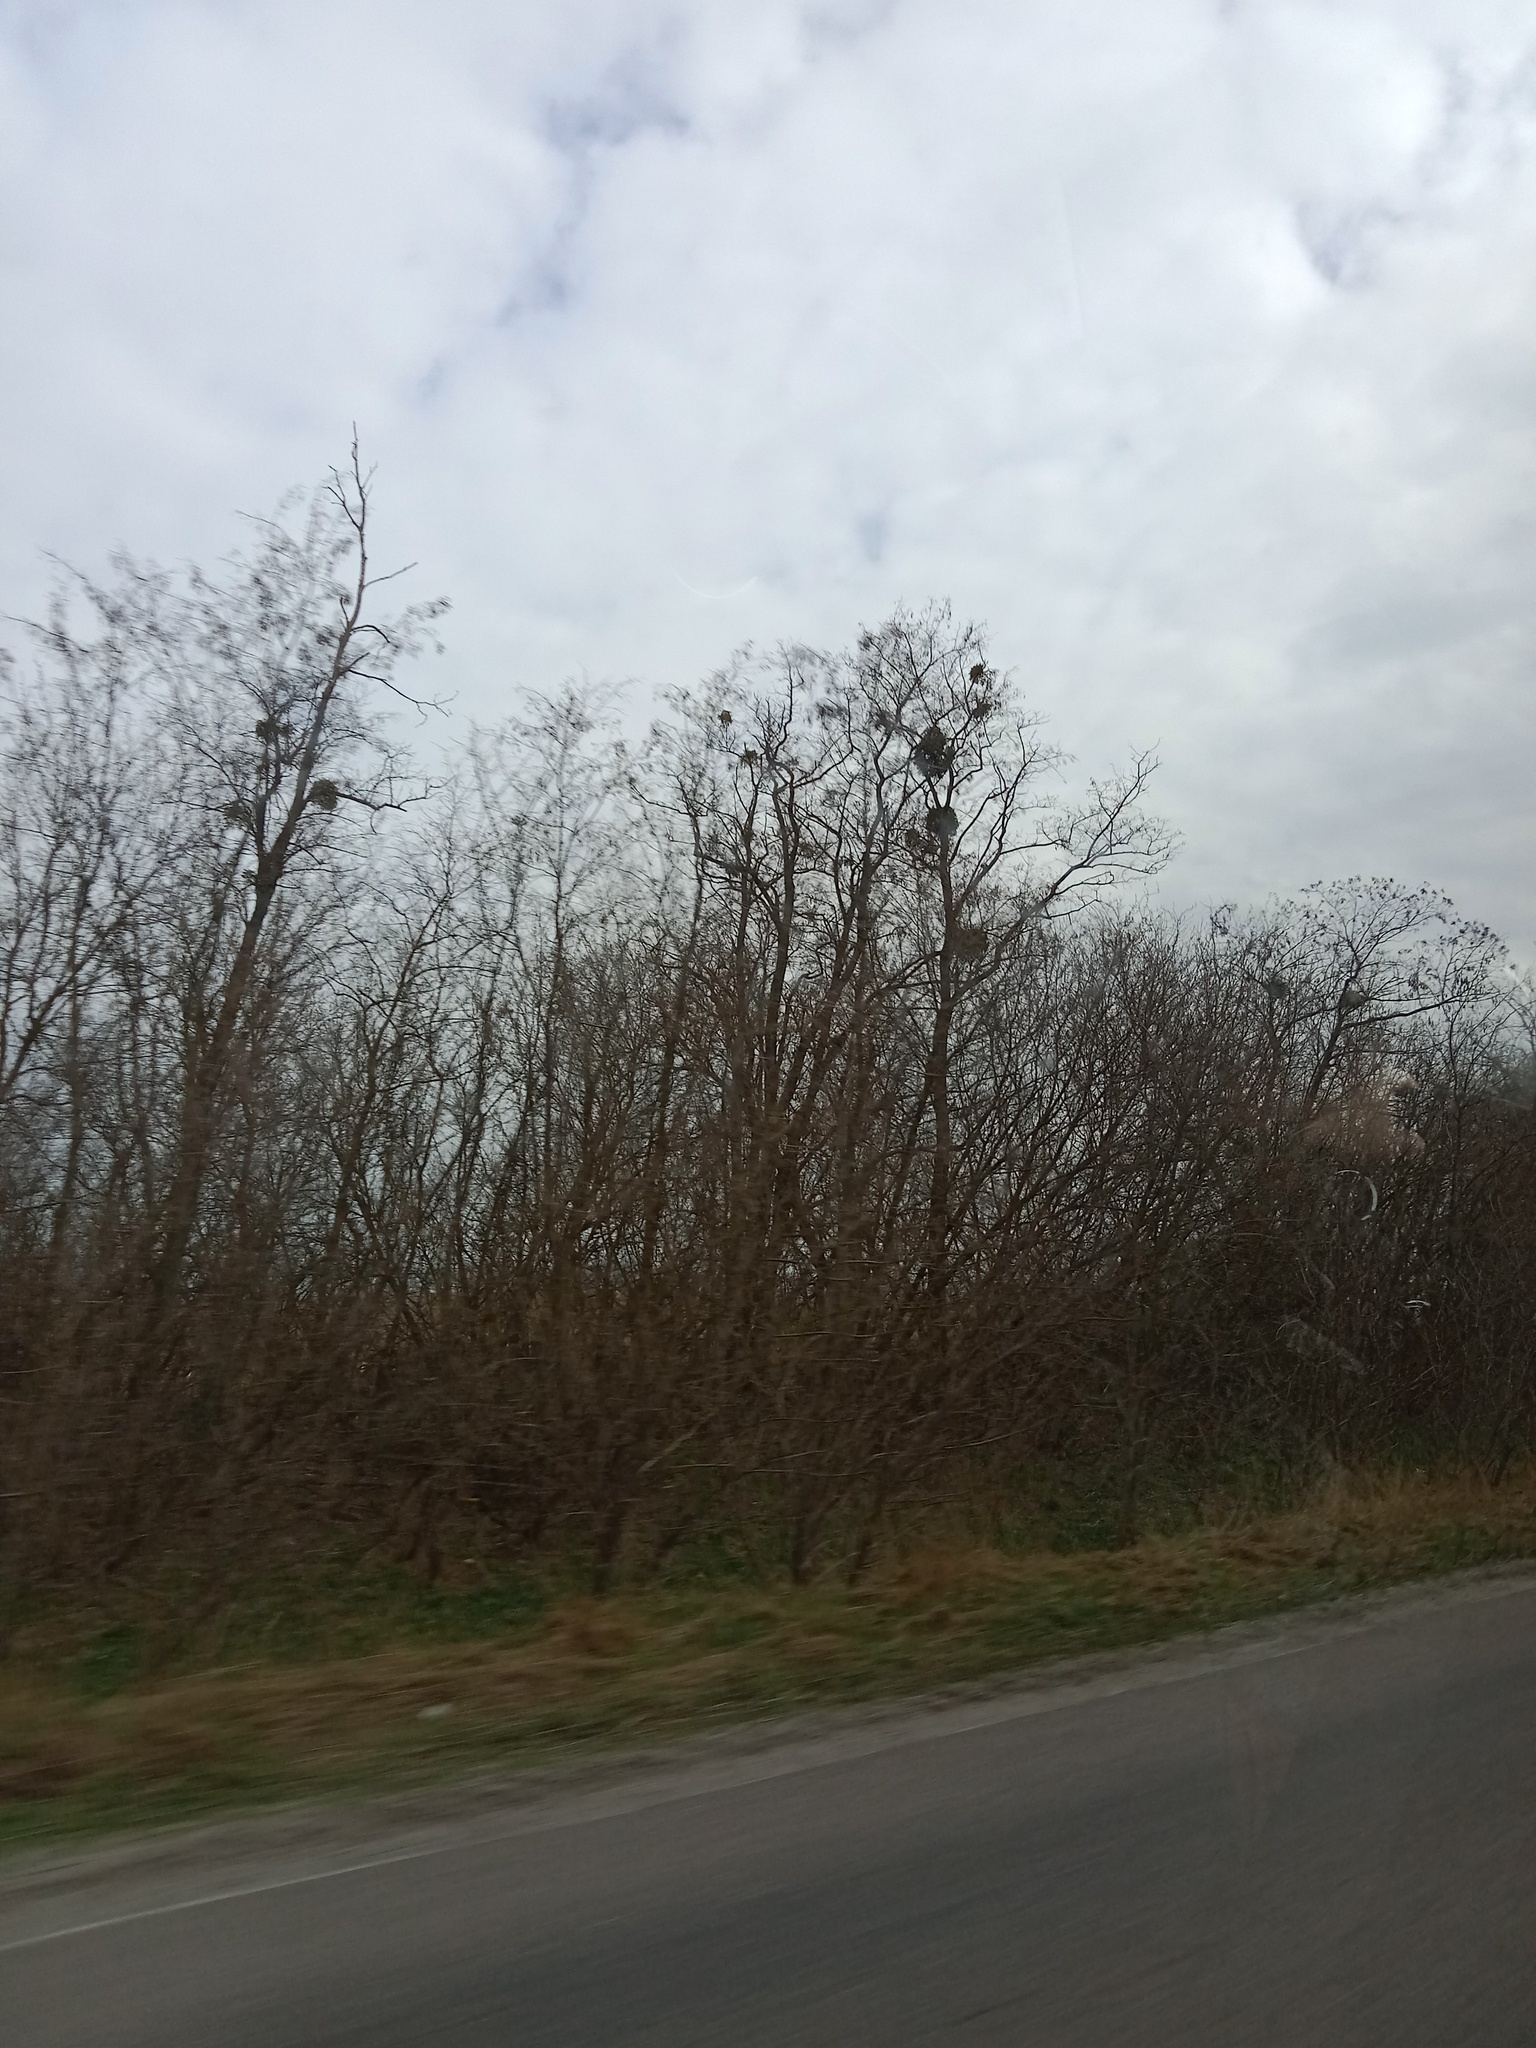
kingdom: Plantae
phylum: Tracheophyta
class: Magnoliopsida
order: Santalales
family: Viscaceae
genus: Viscum
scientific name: Viscum album
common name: Mistletoe
